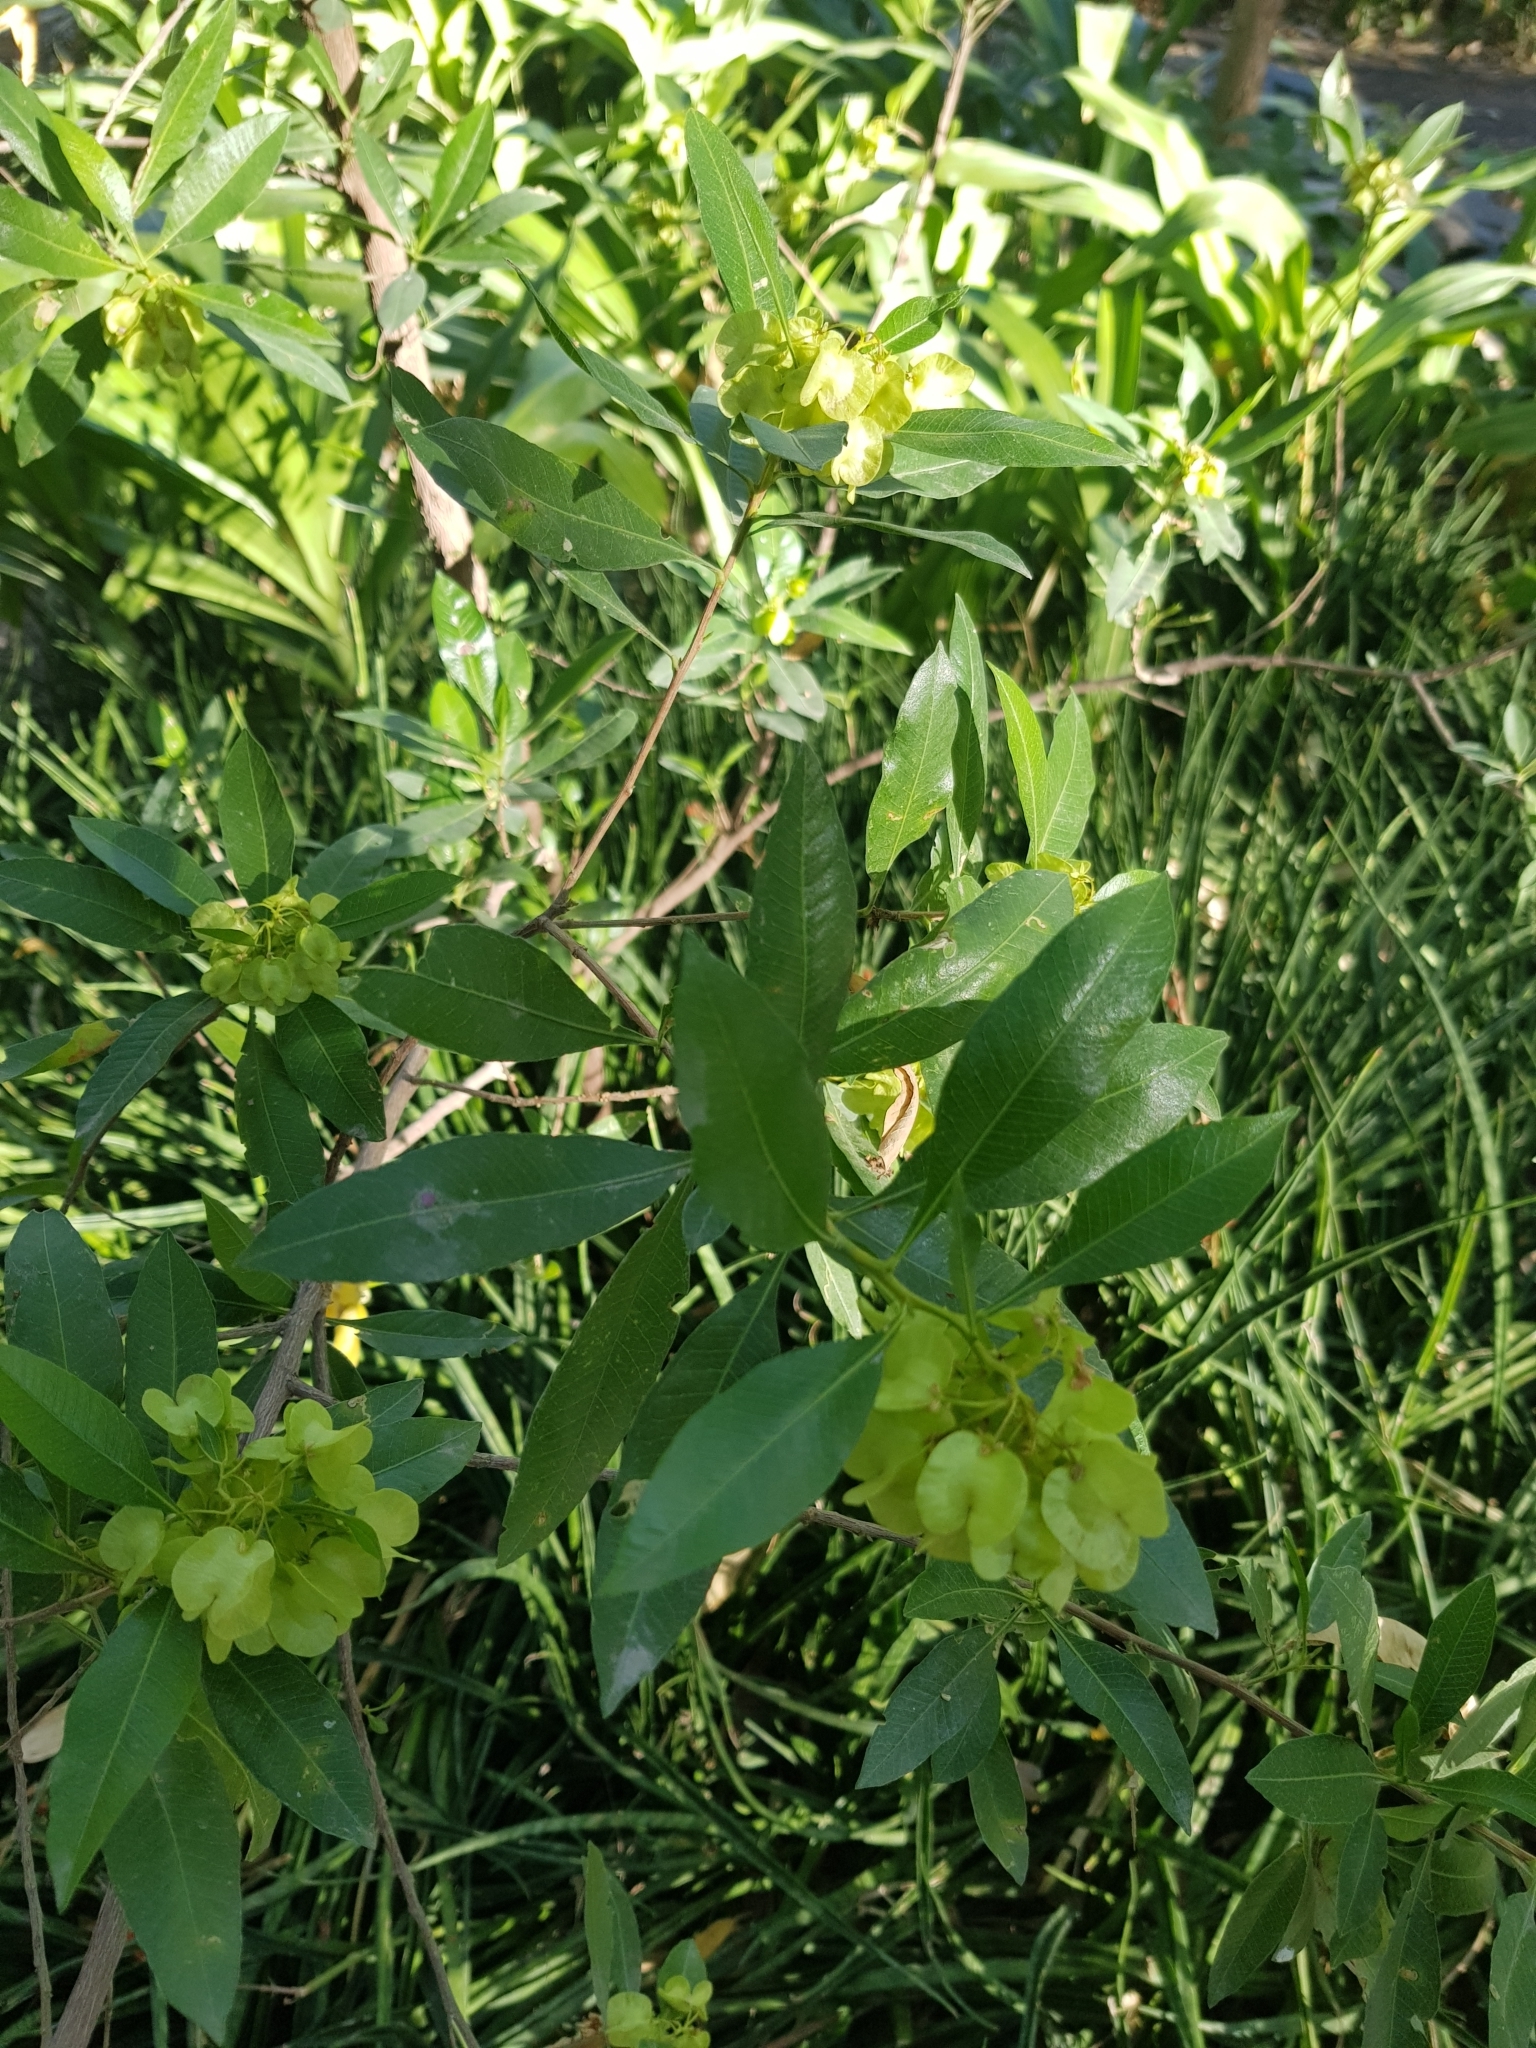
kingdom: Plantae
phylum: Tracheophyta
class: Magnoliopsida
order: Sapindales
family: Sapindaceae
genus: Dodonaea
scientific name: Dodonaea viscosa
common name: Hopbush
